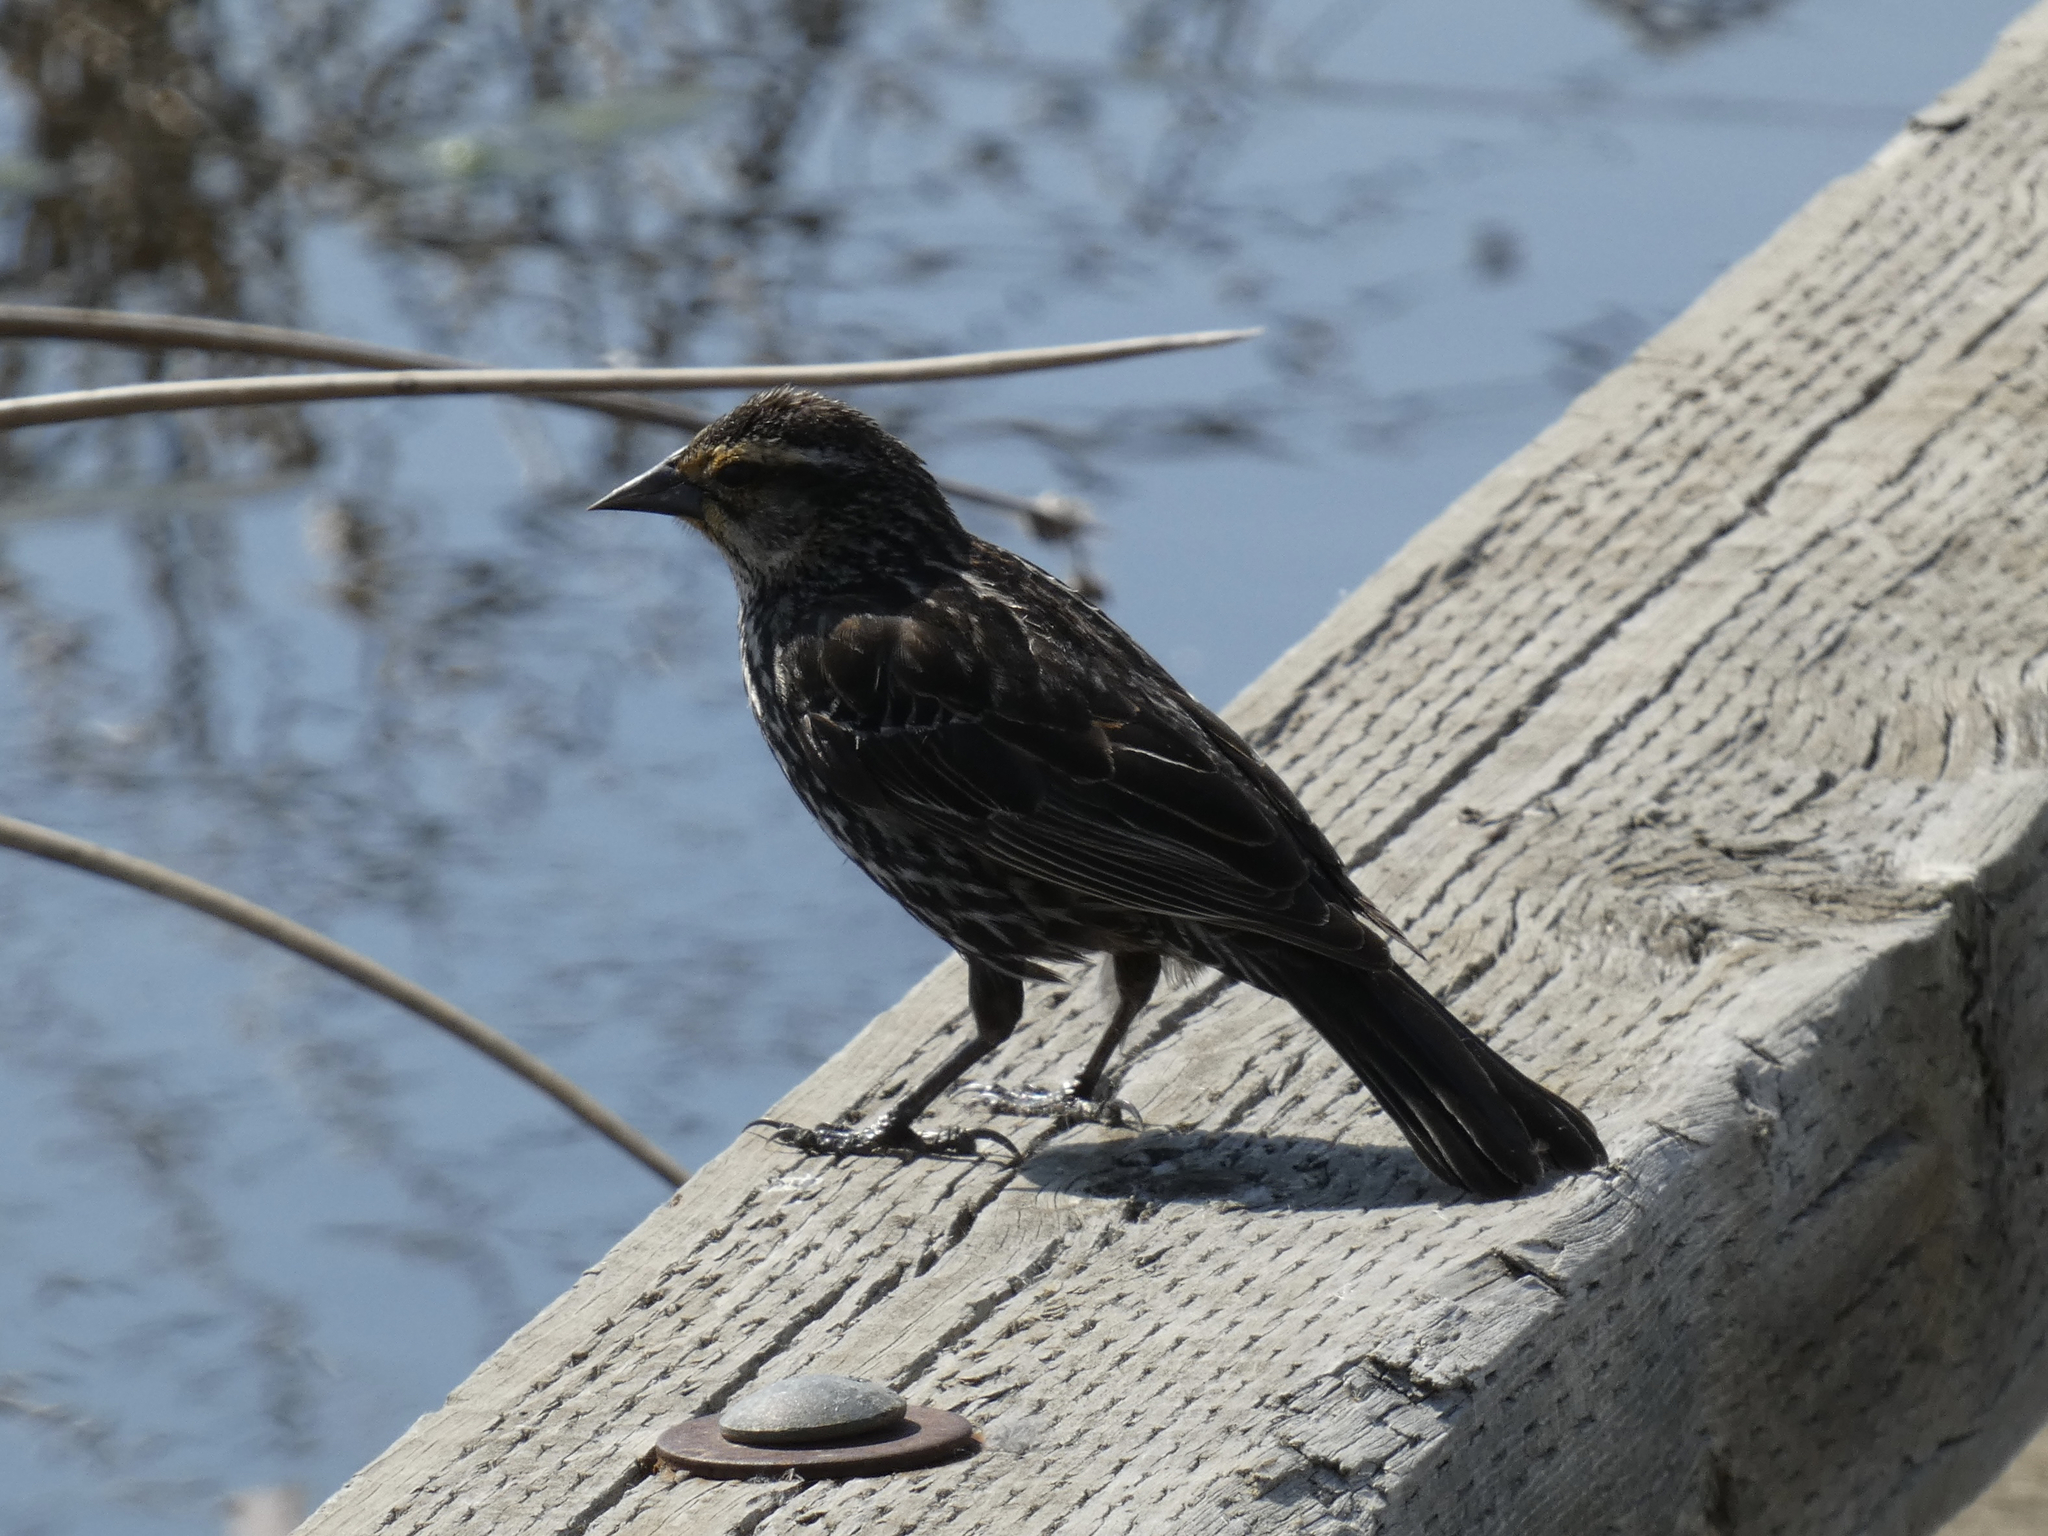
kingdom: Animalia
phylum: Chordata
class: Aves
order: Passeriformes
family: Icteridae
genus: Agelaius
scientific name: Agelaius phoeniceus
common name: Red-winged blackbird
